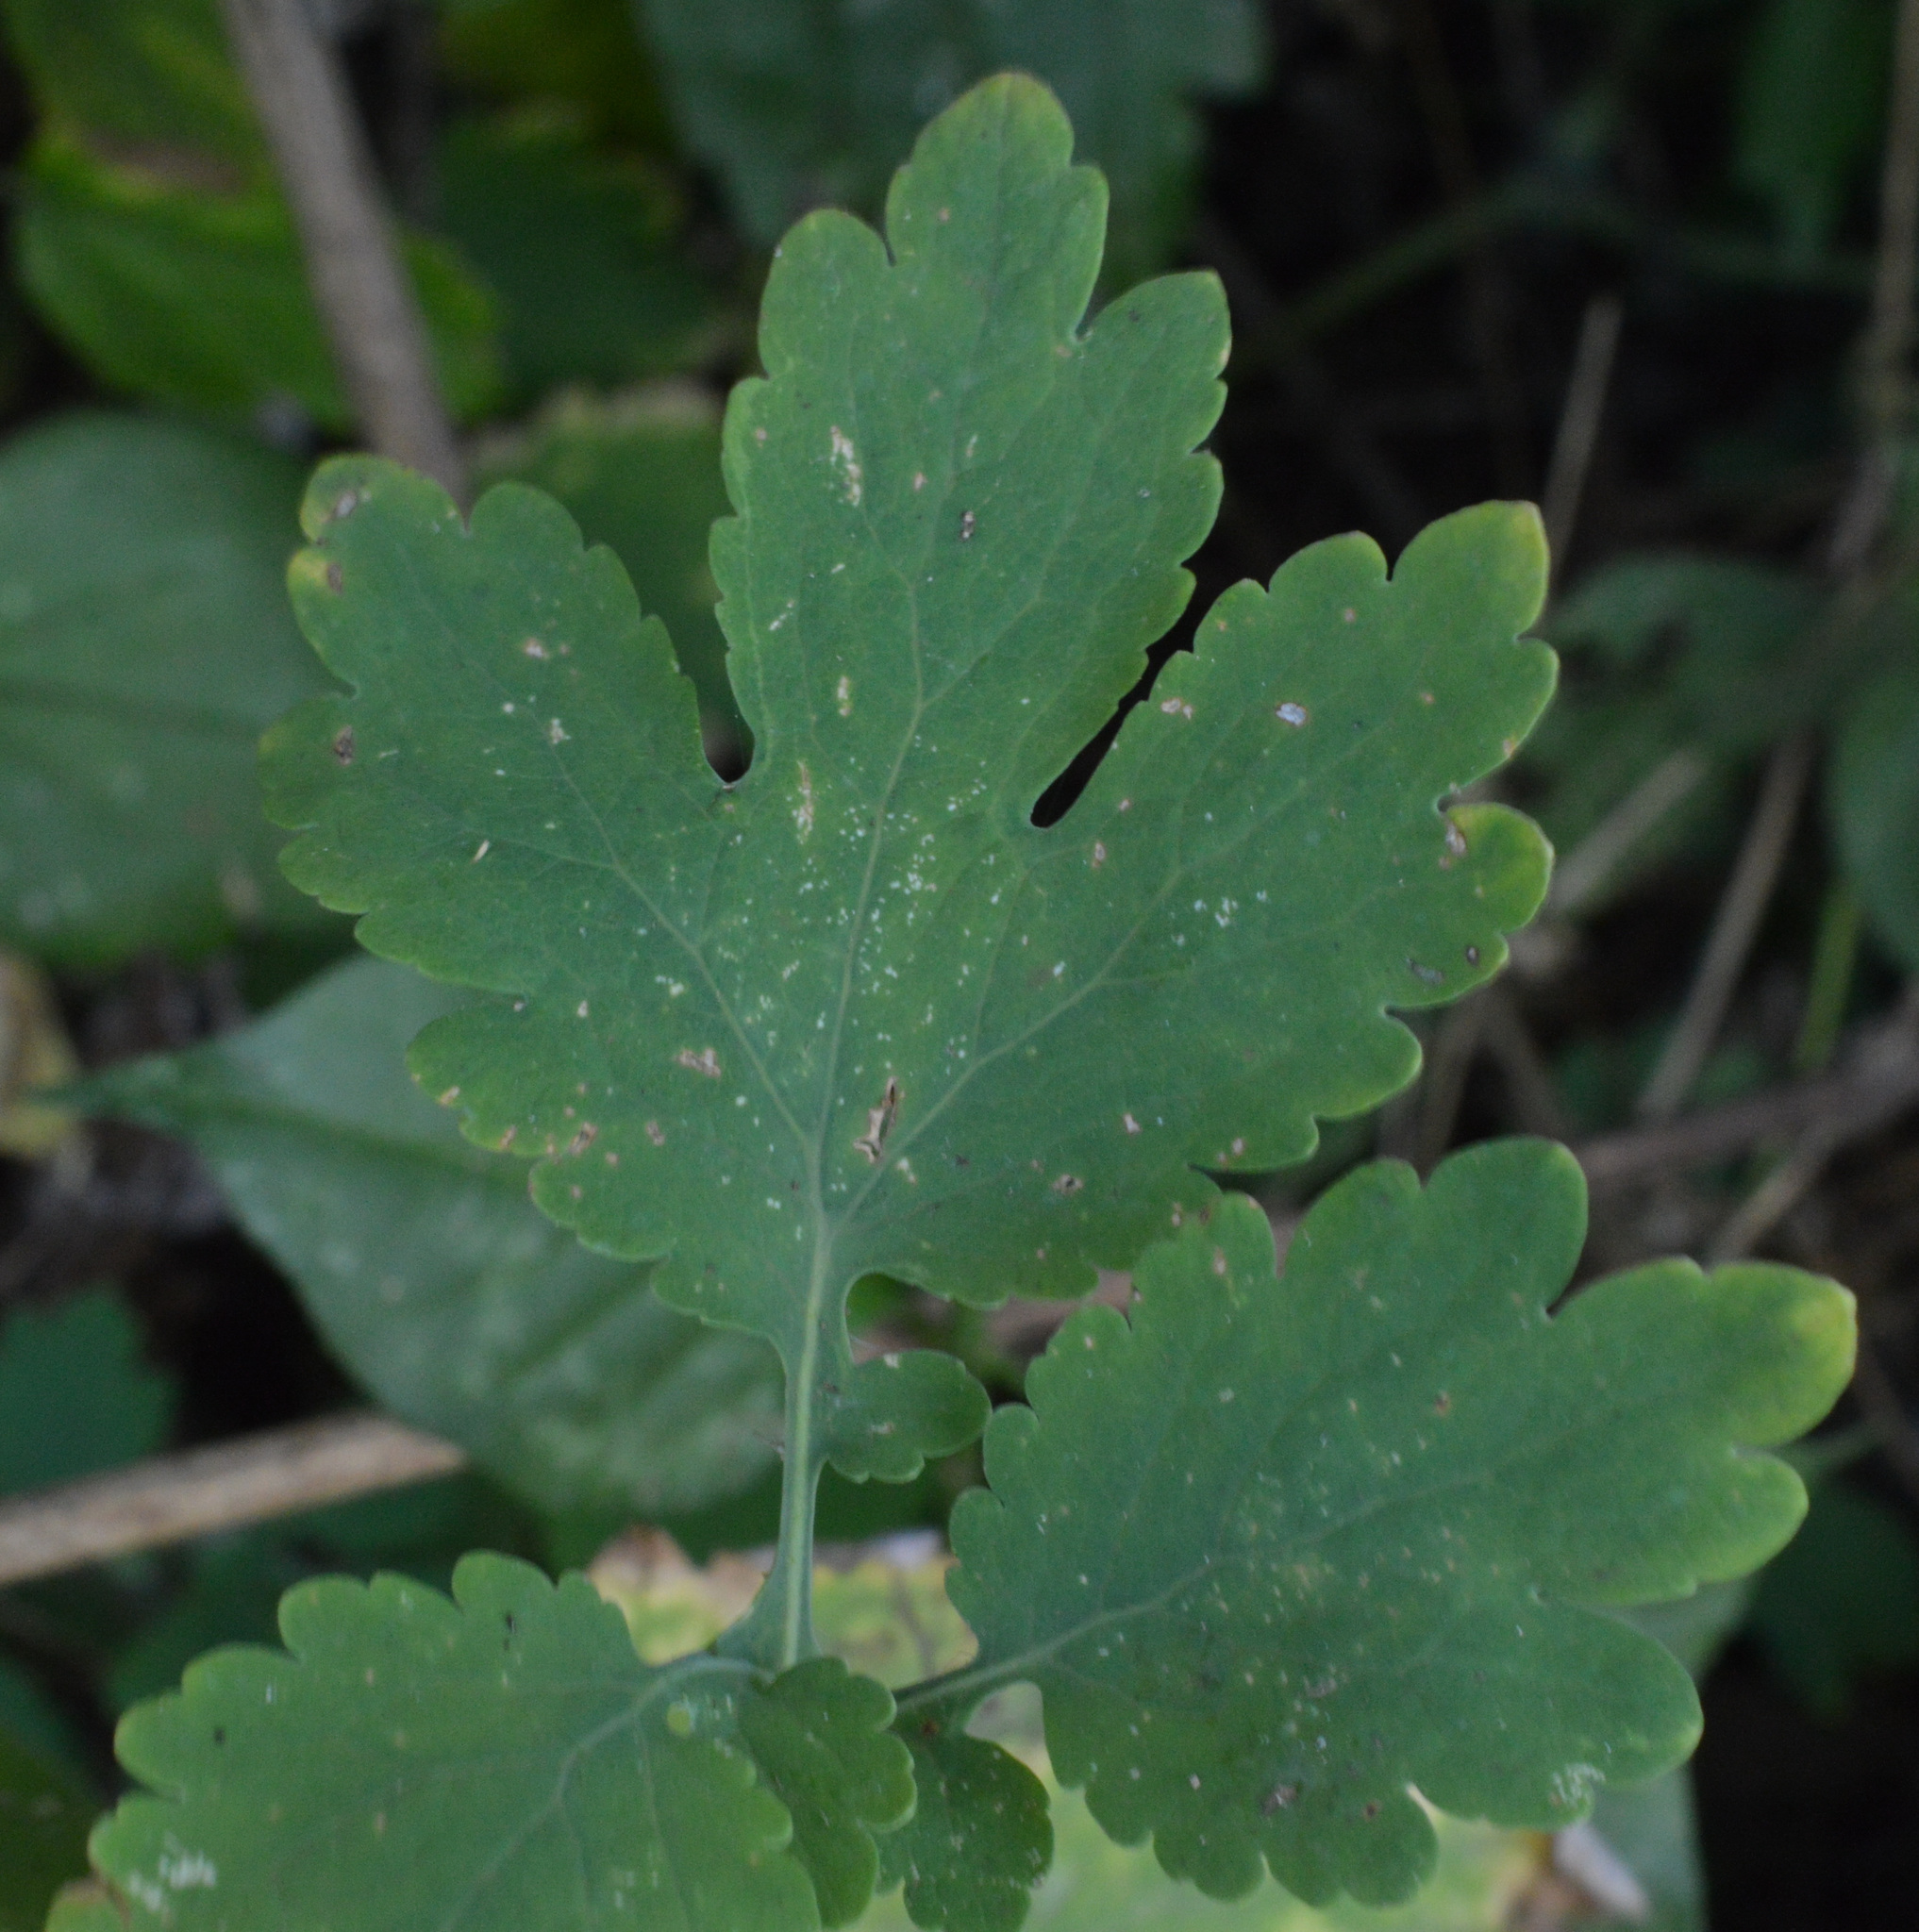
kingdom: Plantae
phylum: Tracheophyta
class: Magnoliopsida
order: Ranunculales
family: Papaveraceae
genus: Chelidonium
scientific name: Chelidonium majus
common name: Greater celandine
